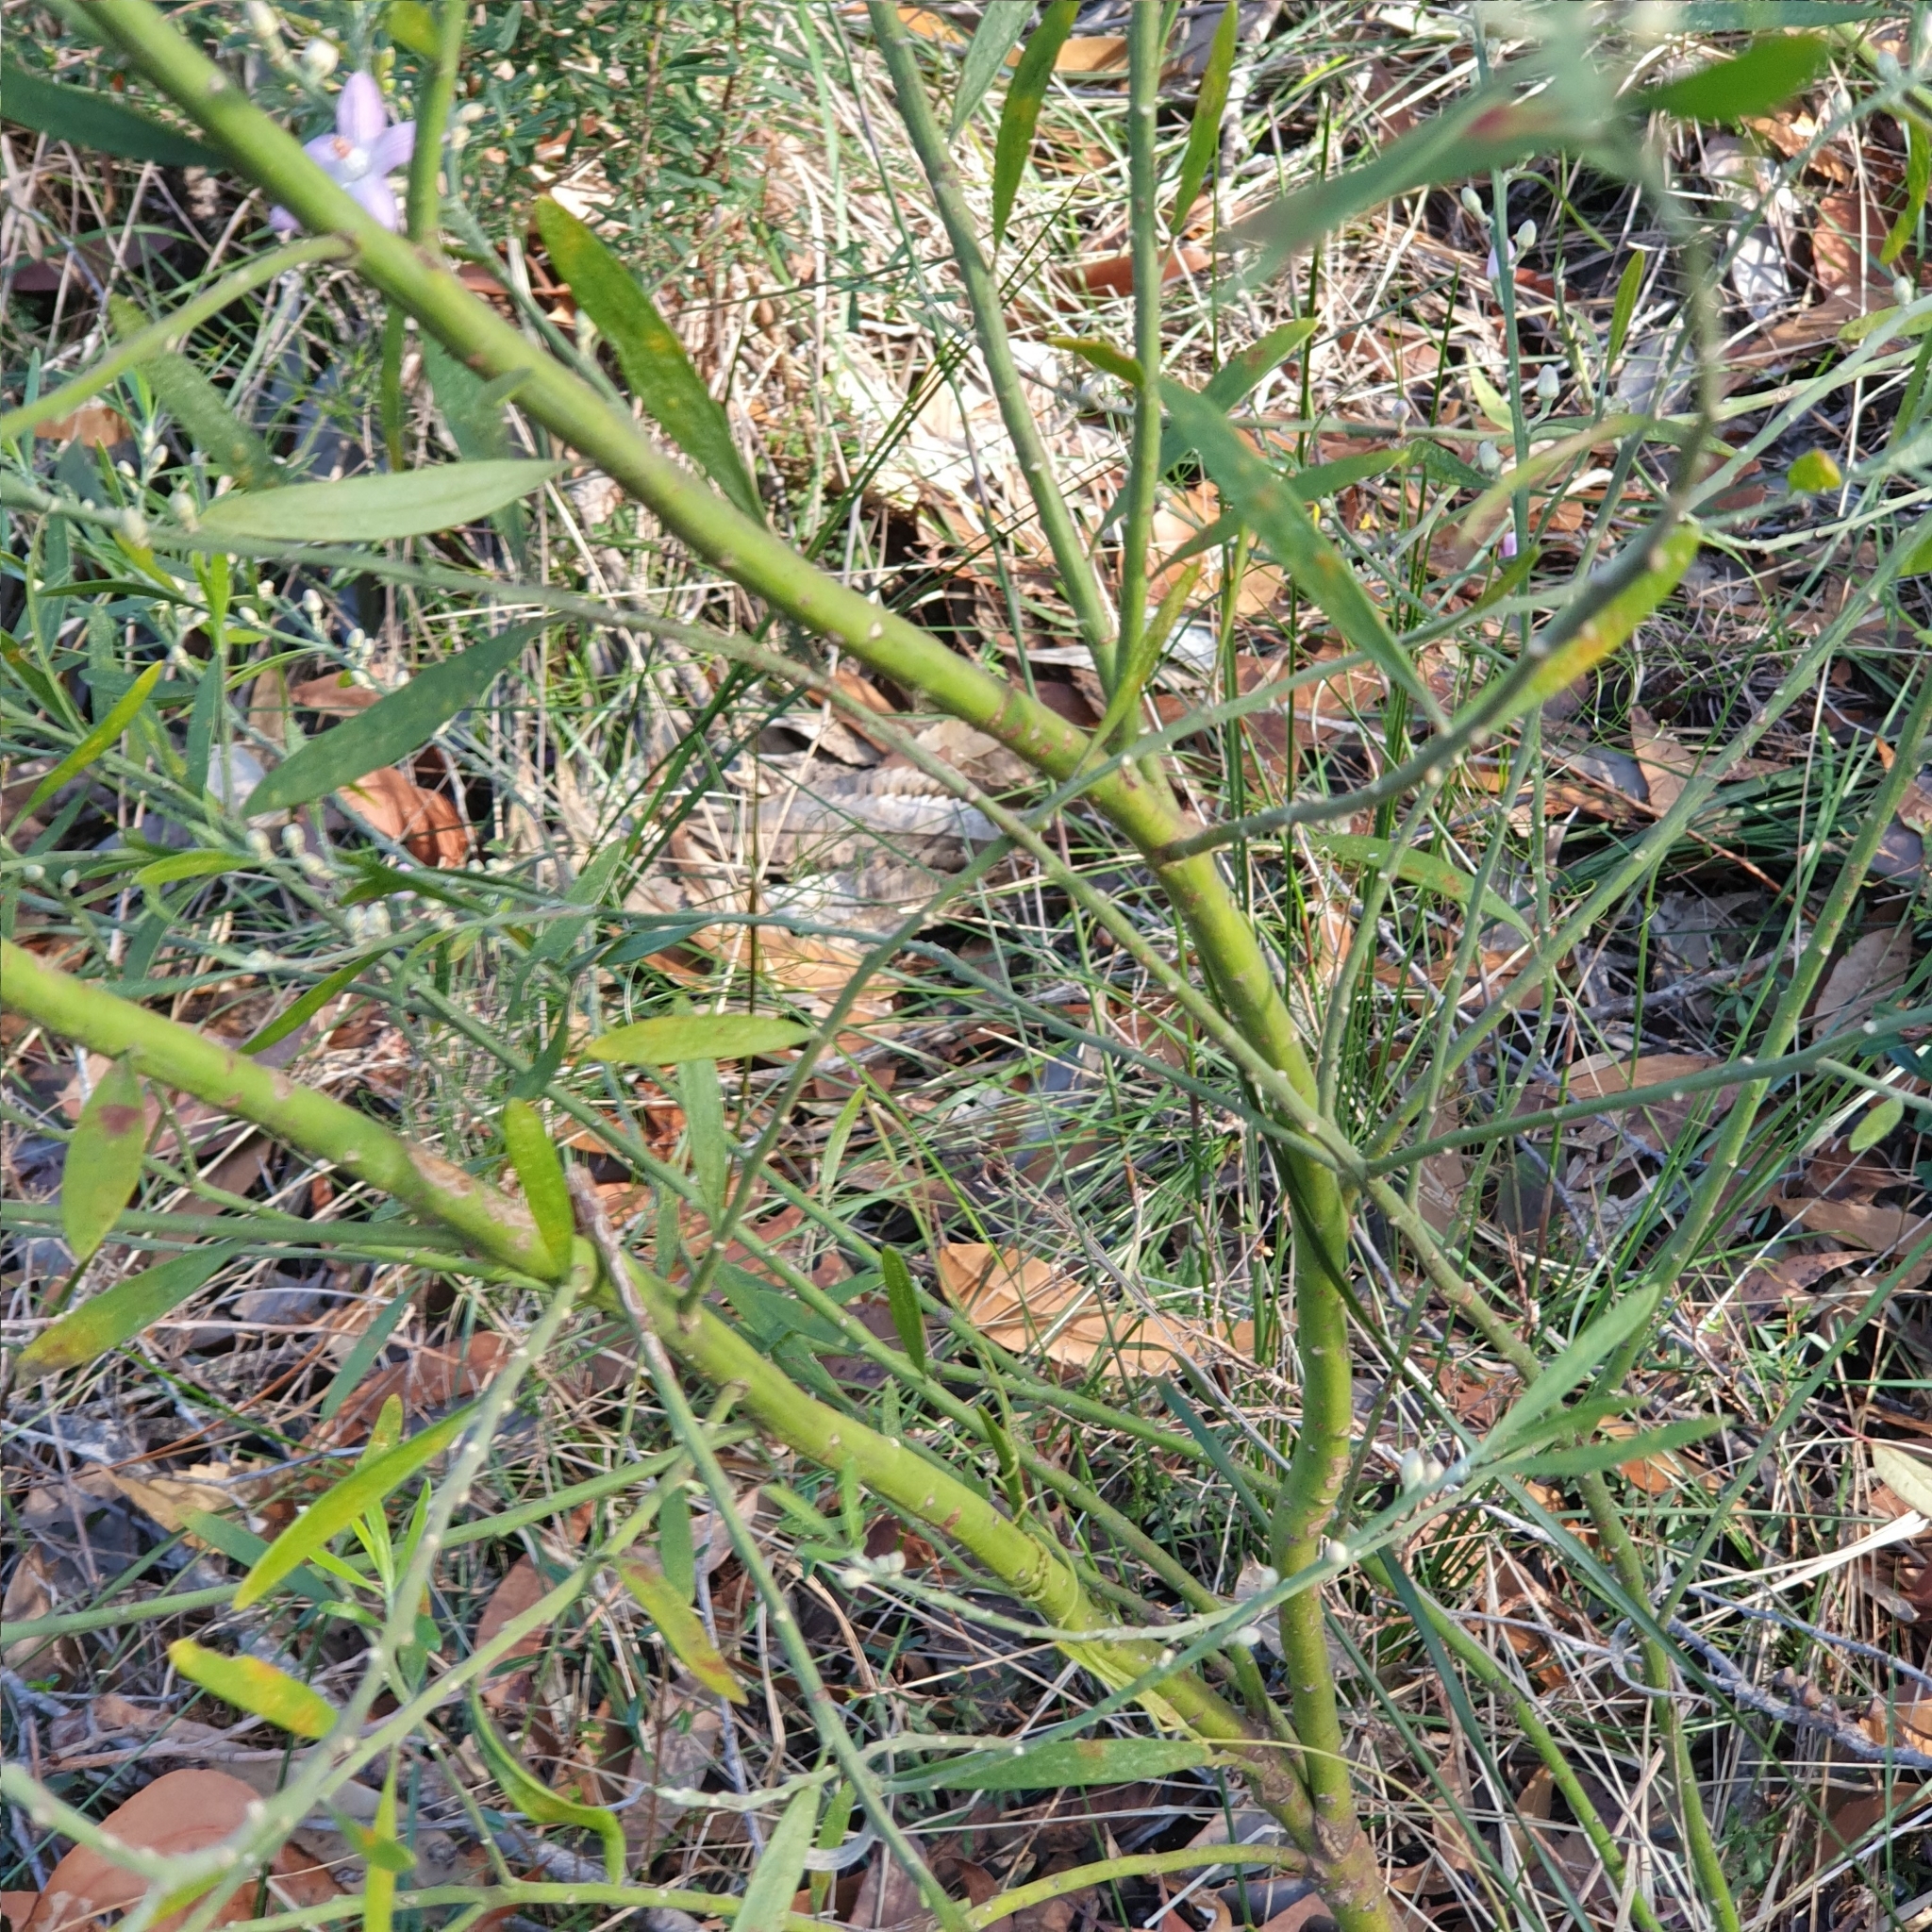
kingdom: Plantae
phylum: Tracheophyta
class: Magnoliopsida
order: Sapindales
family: Rutaceae
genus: Eriostemon
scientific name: Eriostemon australasius
